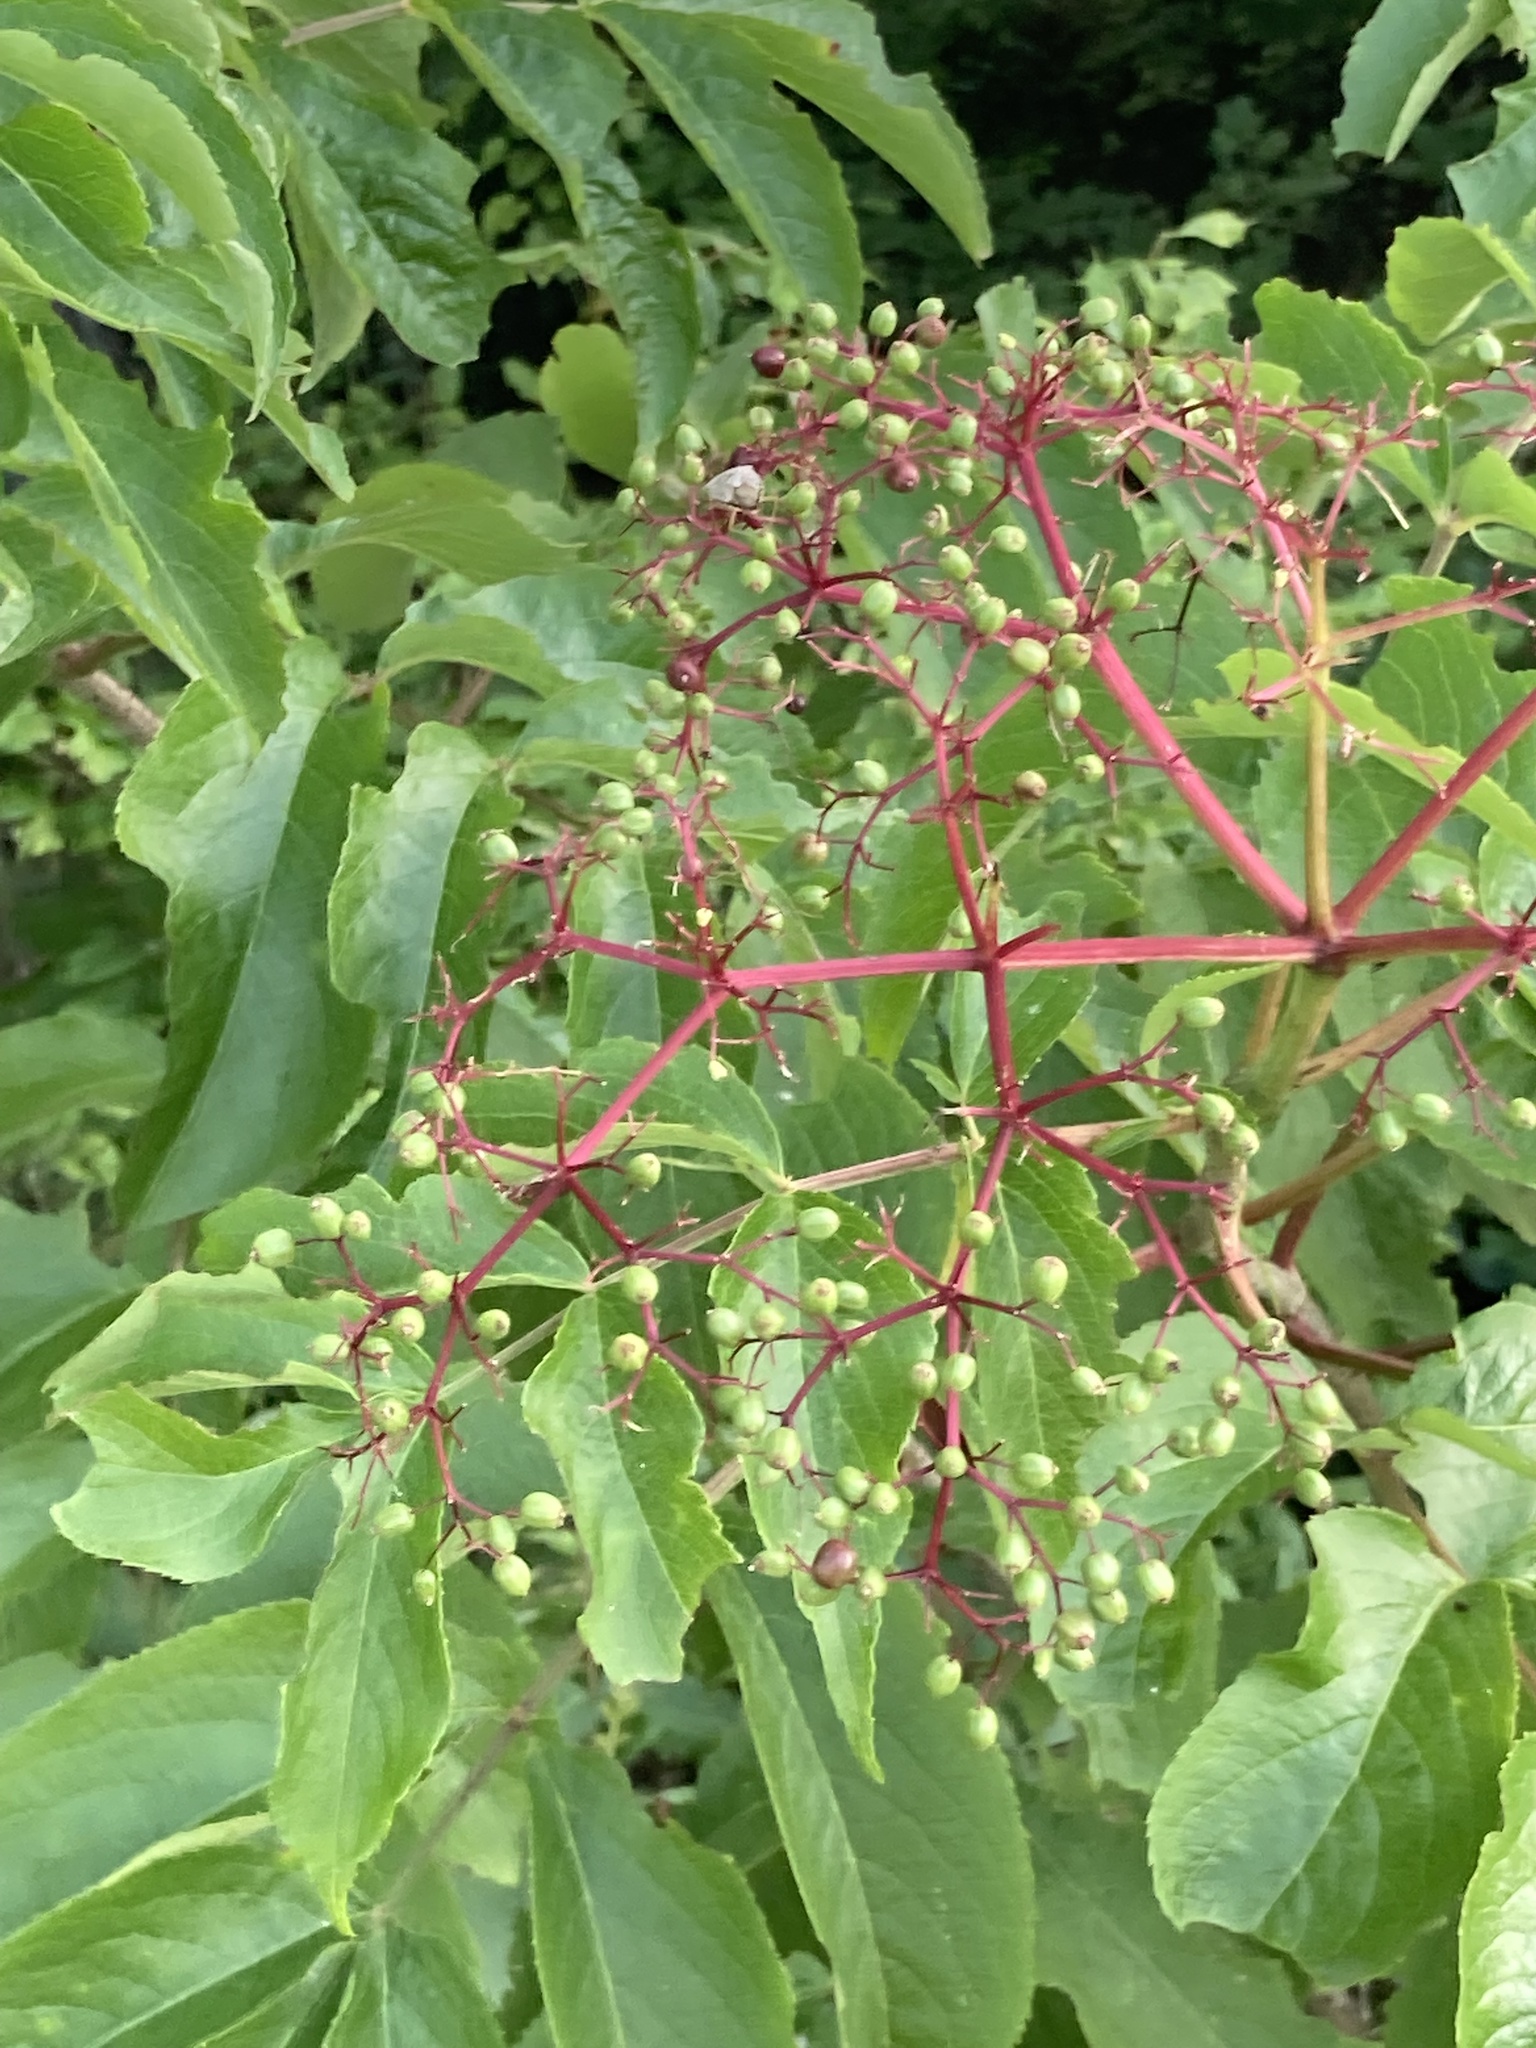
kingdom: Plantae
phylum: Tracheophyta
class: Magnoliopsida
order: Dipsacales
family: Viburnaceae
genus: Sambucus
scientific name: Sambucus canadensis
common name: American elder
